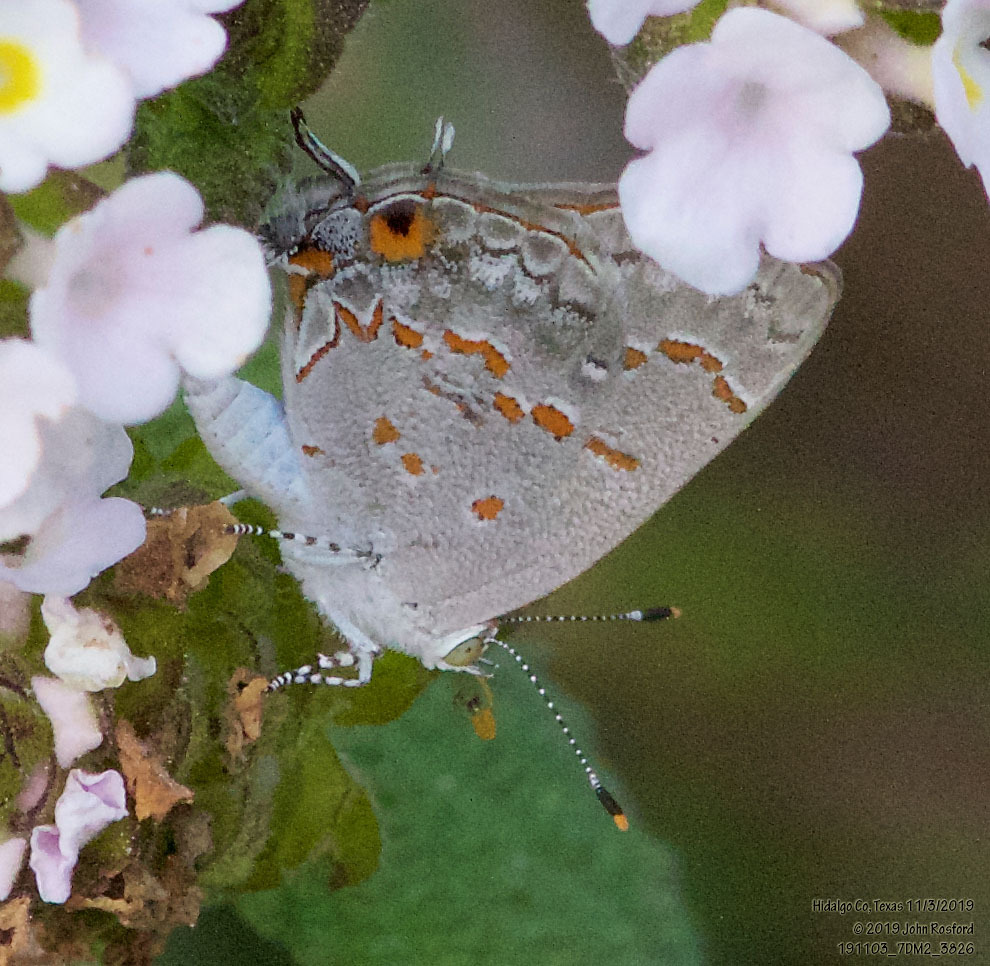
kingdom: Animalia
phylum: Arthropoda
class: Insecta
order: Lepidoptera
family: Lycaenidae
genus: Ministrymon
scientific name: Ministrymon clytie
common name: Clytie ministreak
